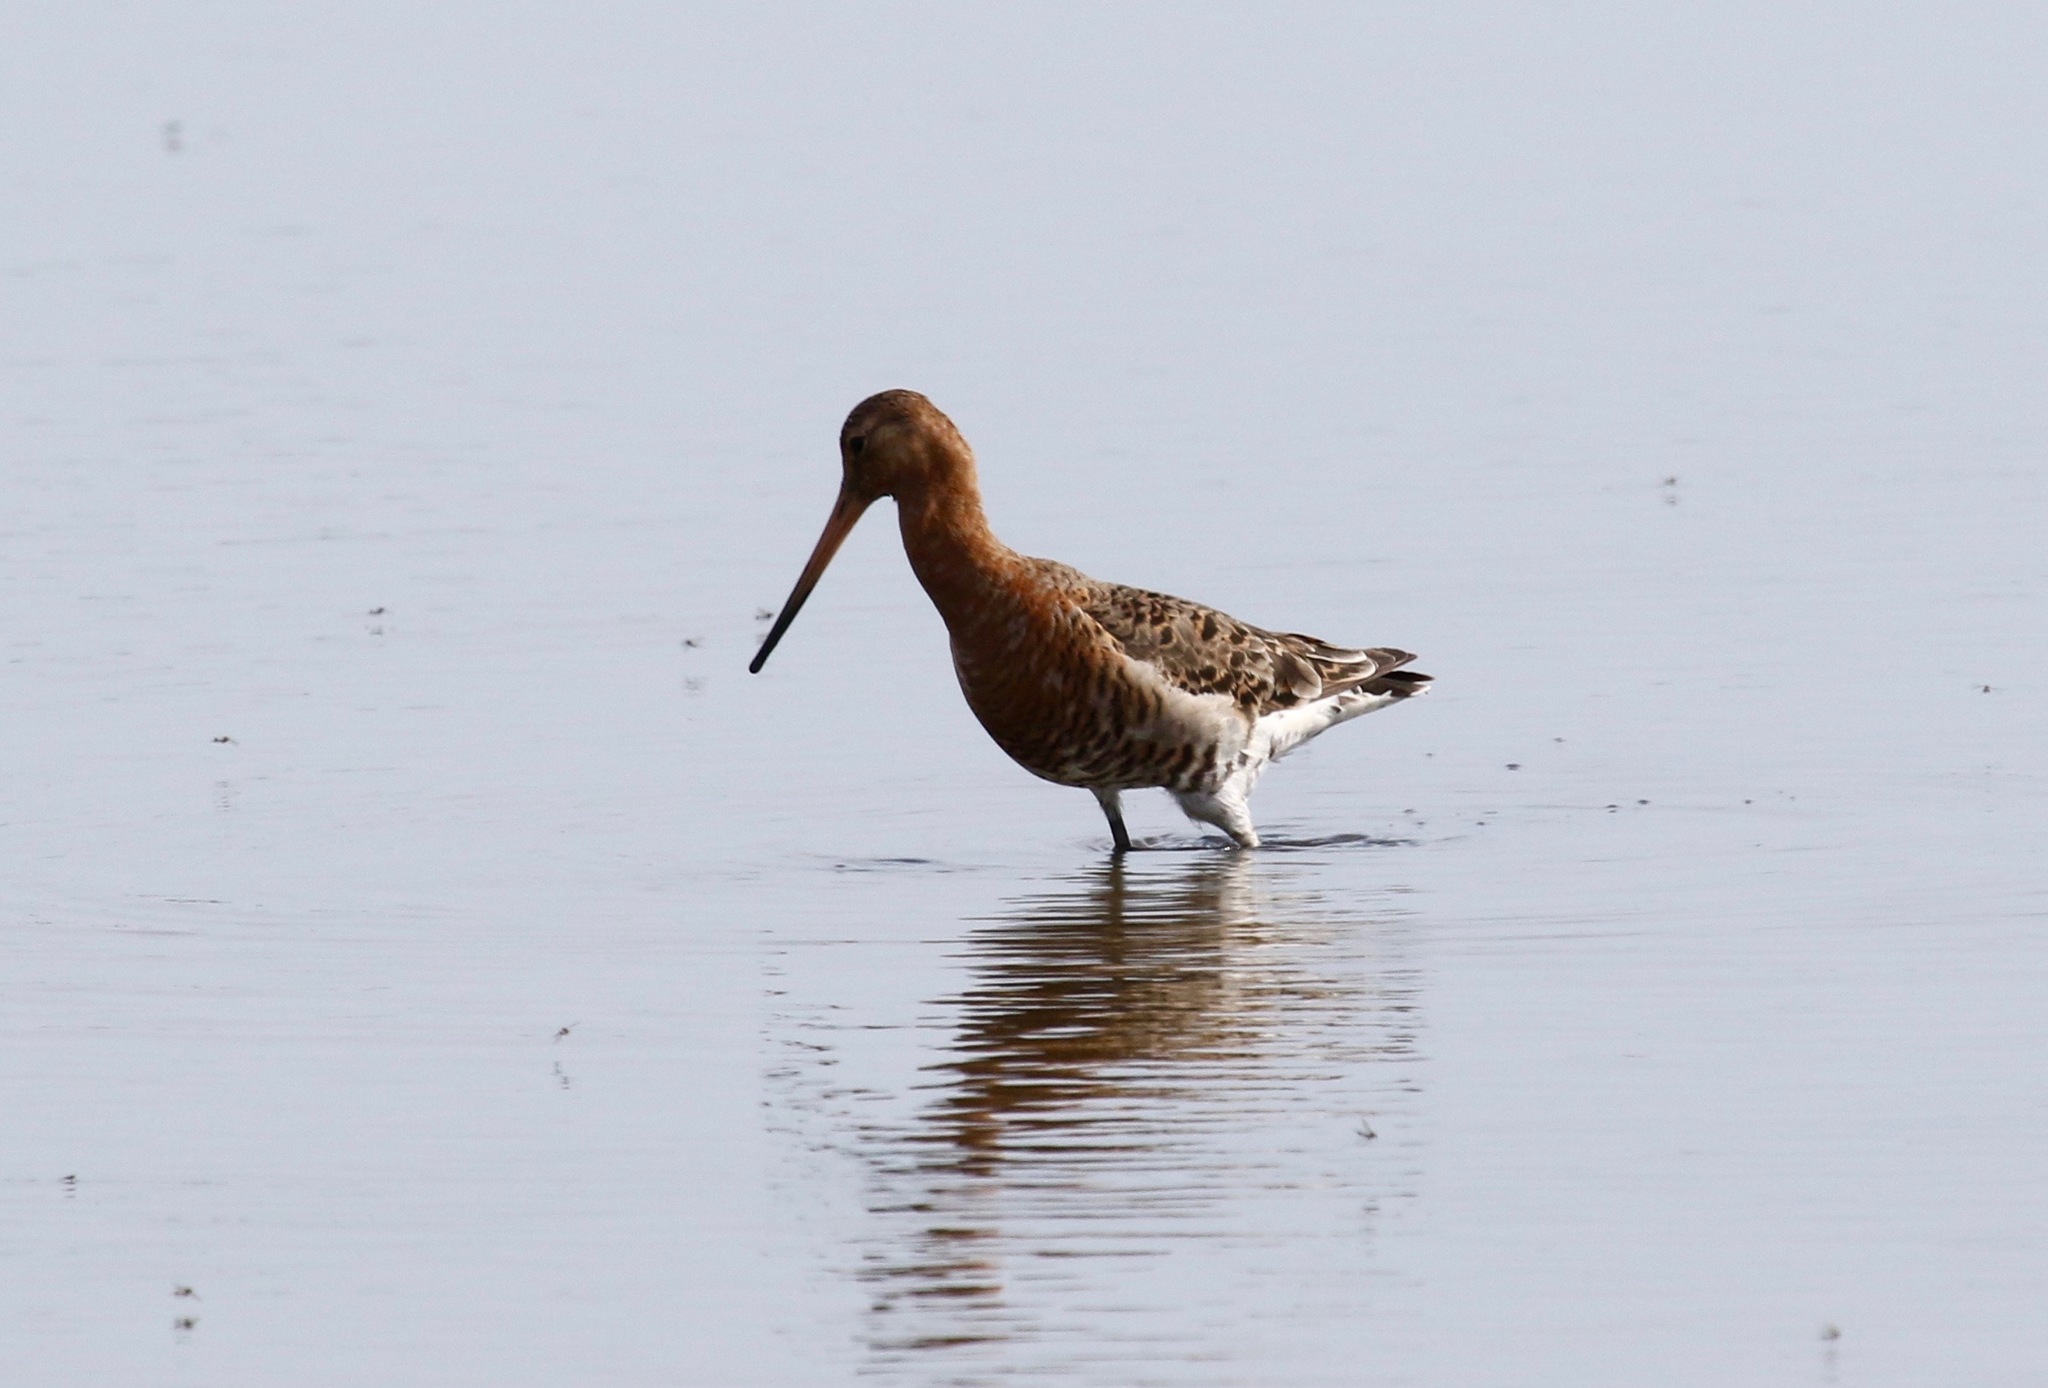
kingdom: Animalia
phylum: Chordata
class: Aves
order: Charadriiformes
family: Scolopacidae
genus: Limosa
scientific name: Limosa limosa
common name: Black-tailed godwit
